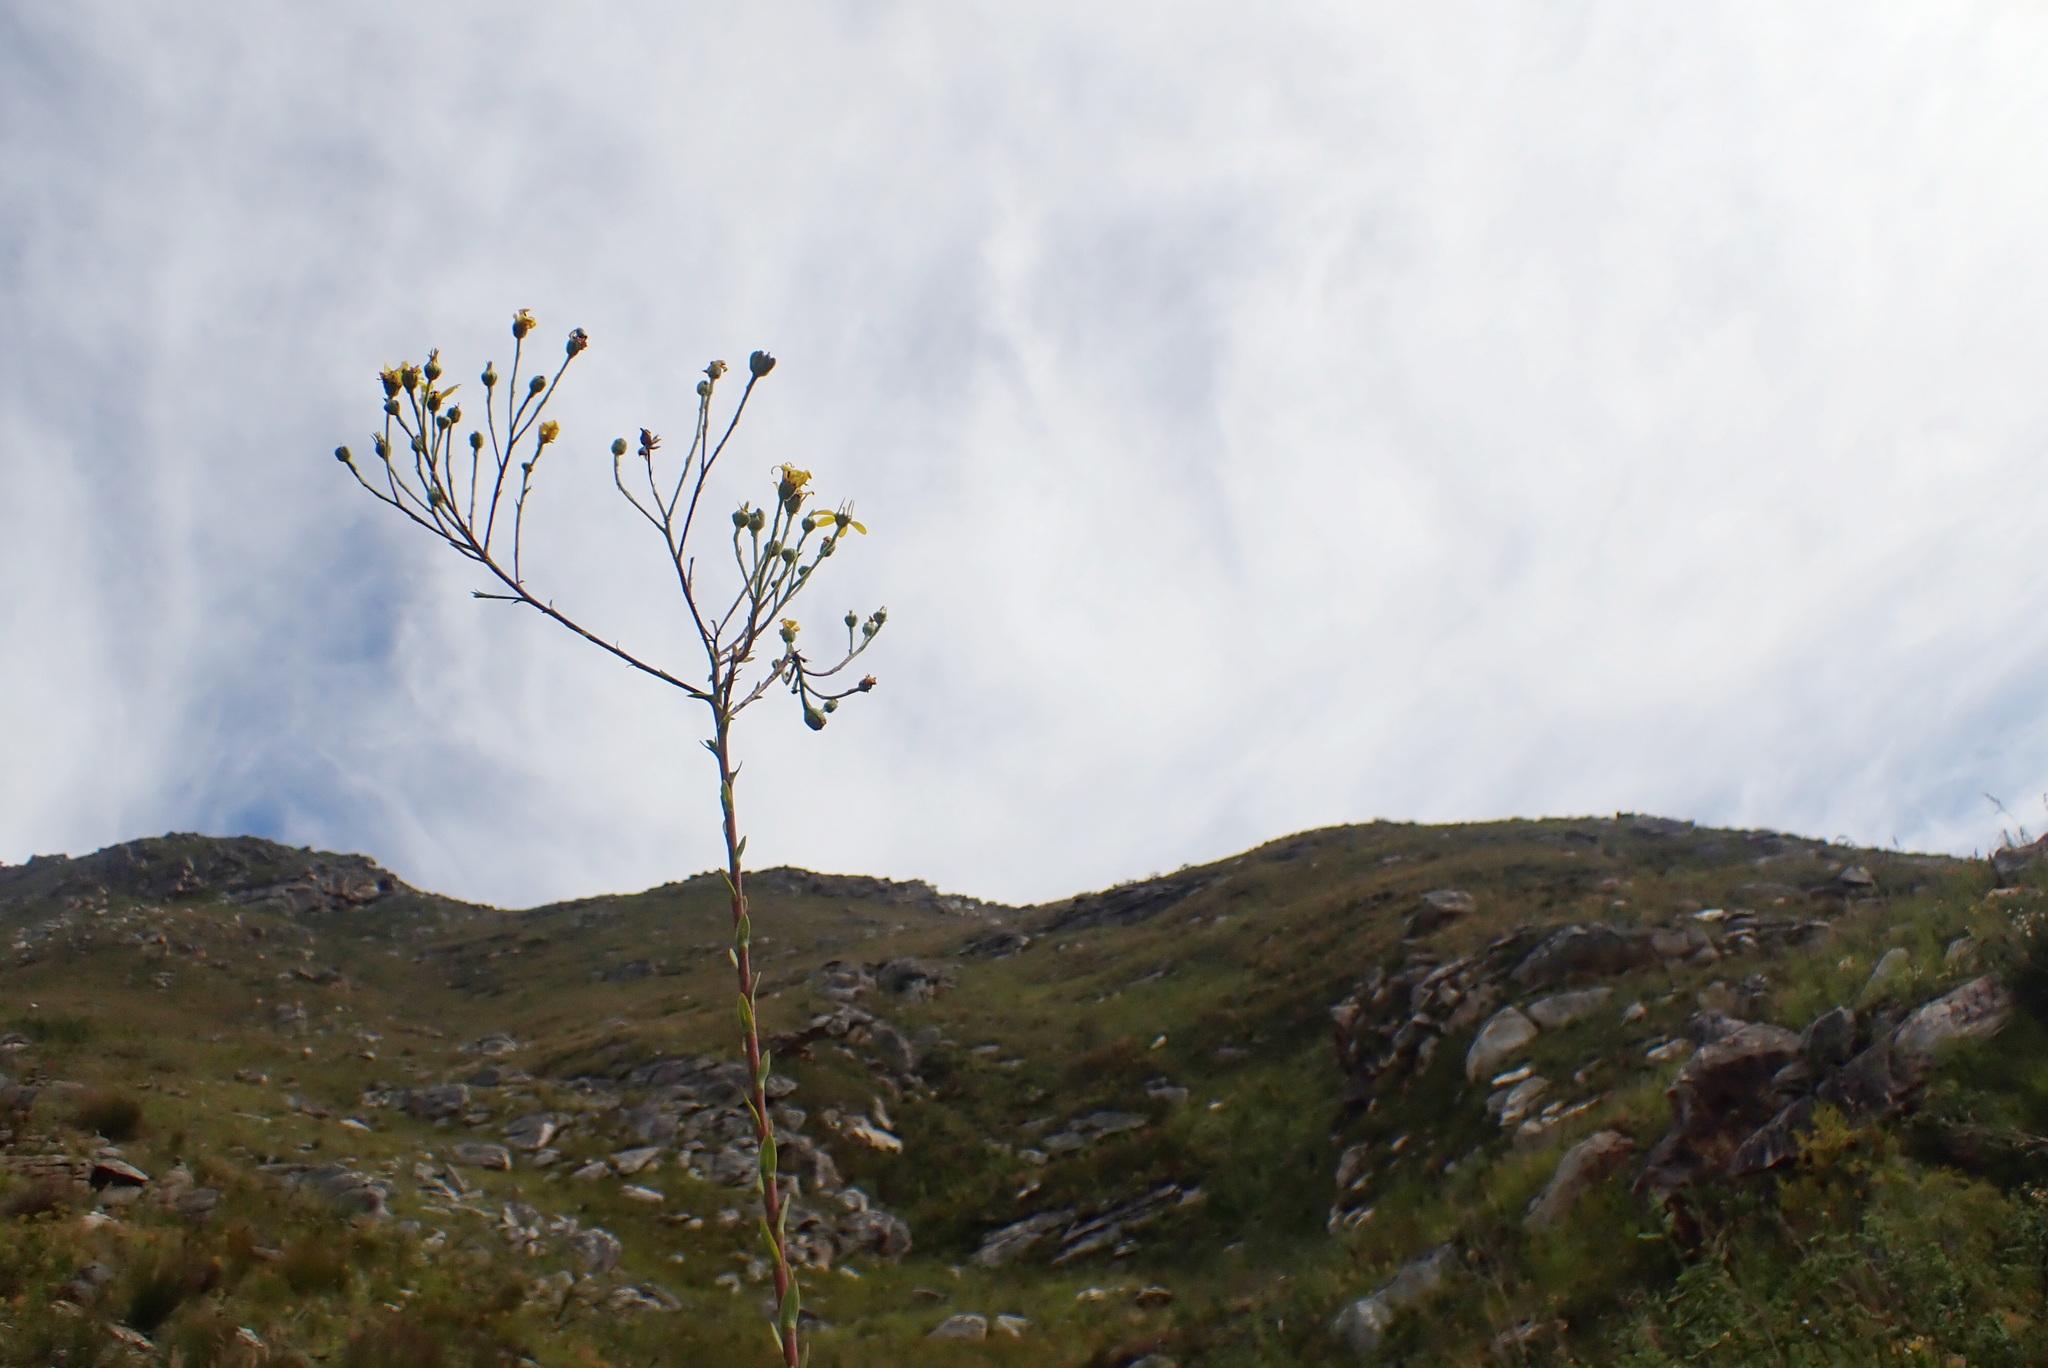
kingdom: Plantae
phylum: Tracheophyta
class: Magnoliopsida
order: Asterales
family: Asteraceae
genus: Osteospermum
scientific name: Osteospermum corymbosum
